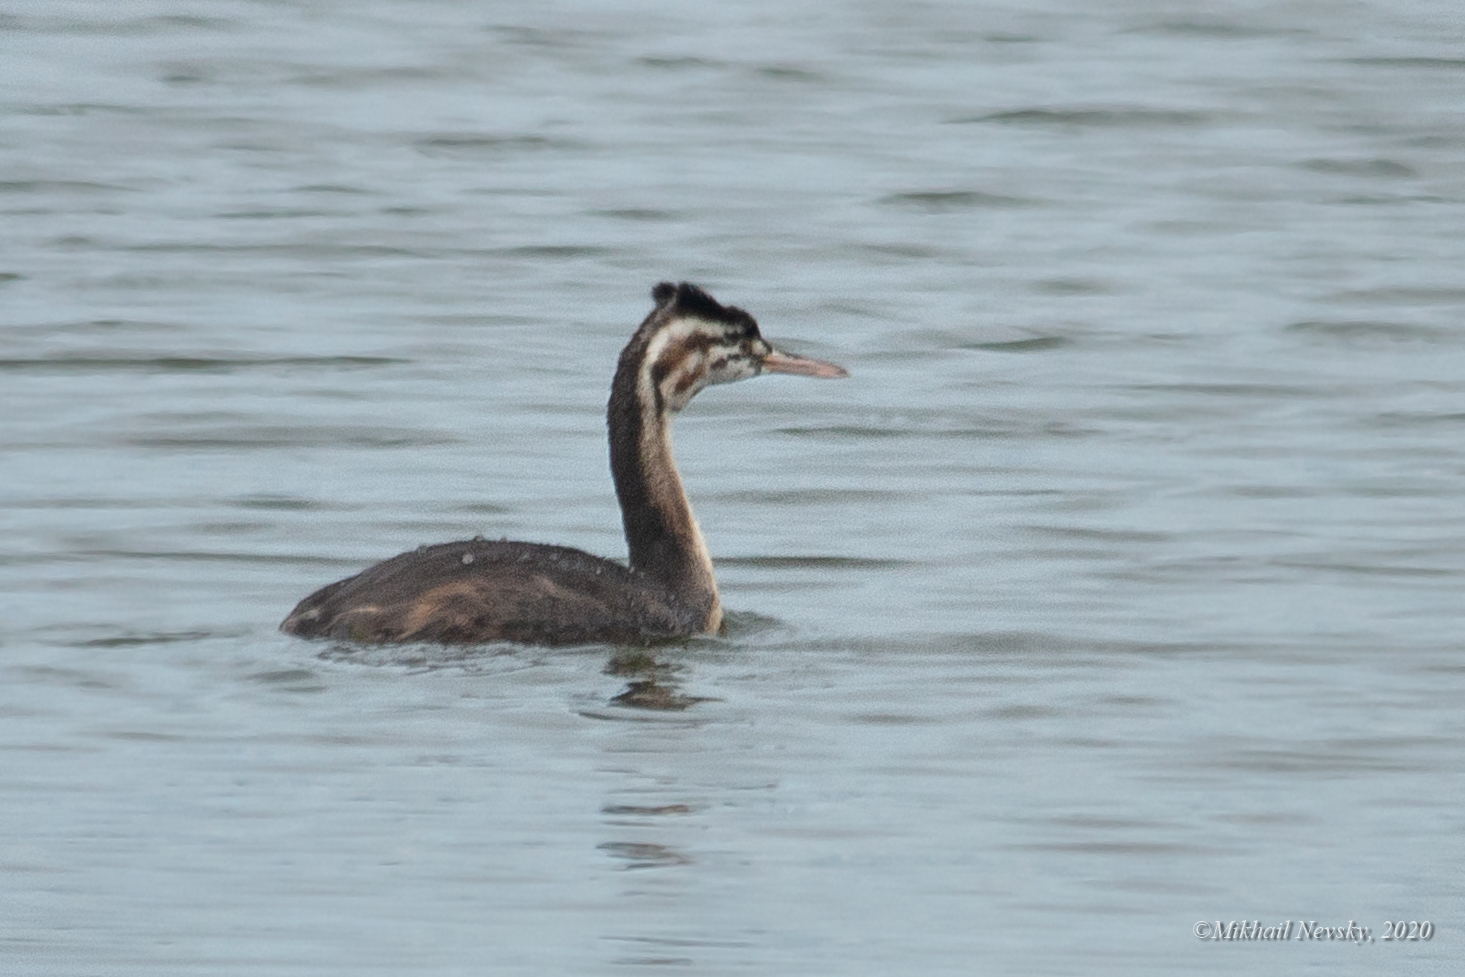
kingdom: Animalia
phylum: Chordata
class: Aves
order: Podicipediformes
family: Podicipedidae
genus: Podiceps
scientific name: Podiceps cristatus
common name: Great crested grebe
